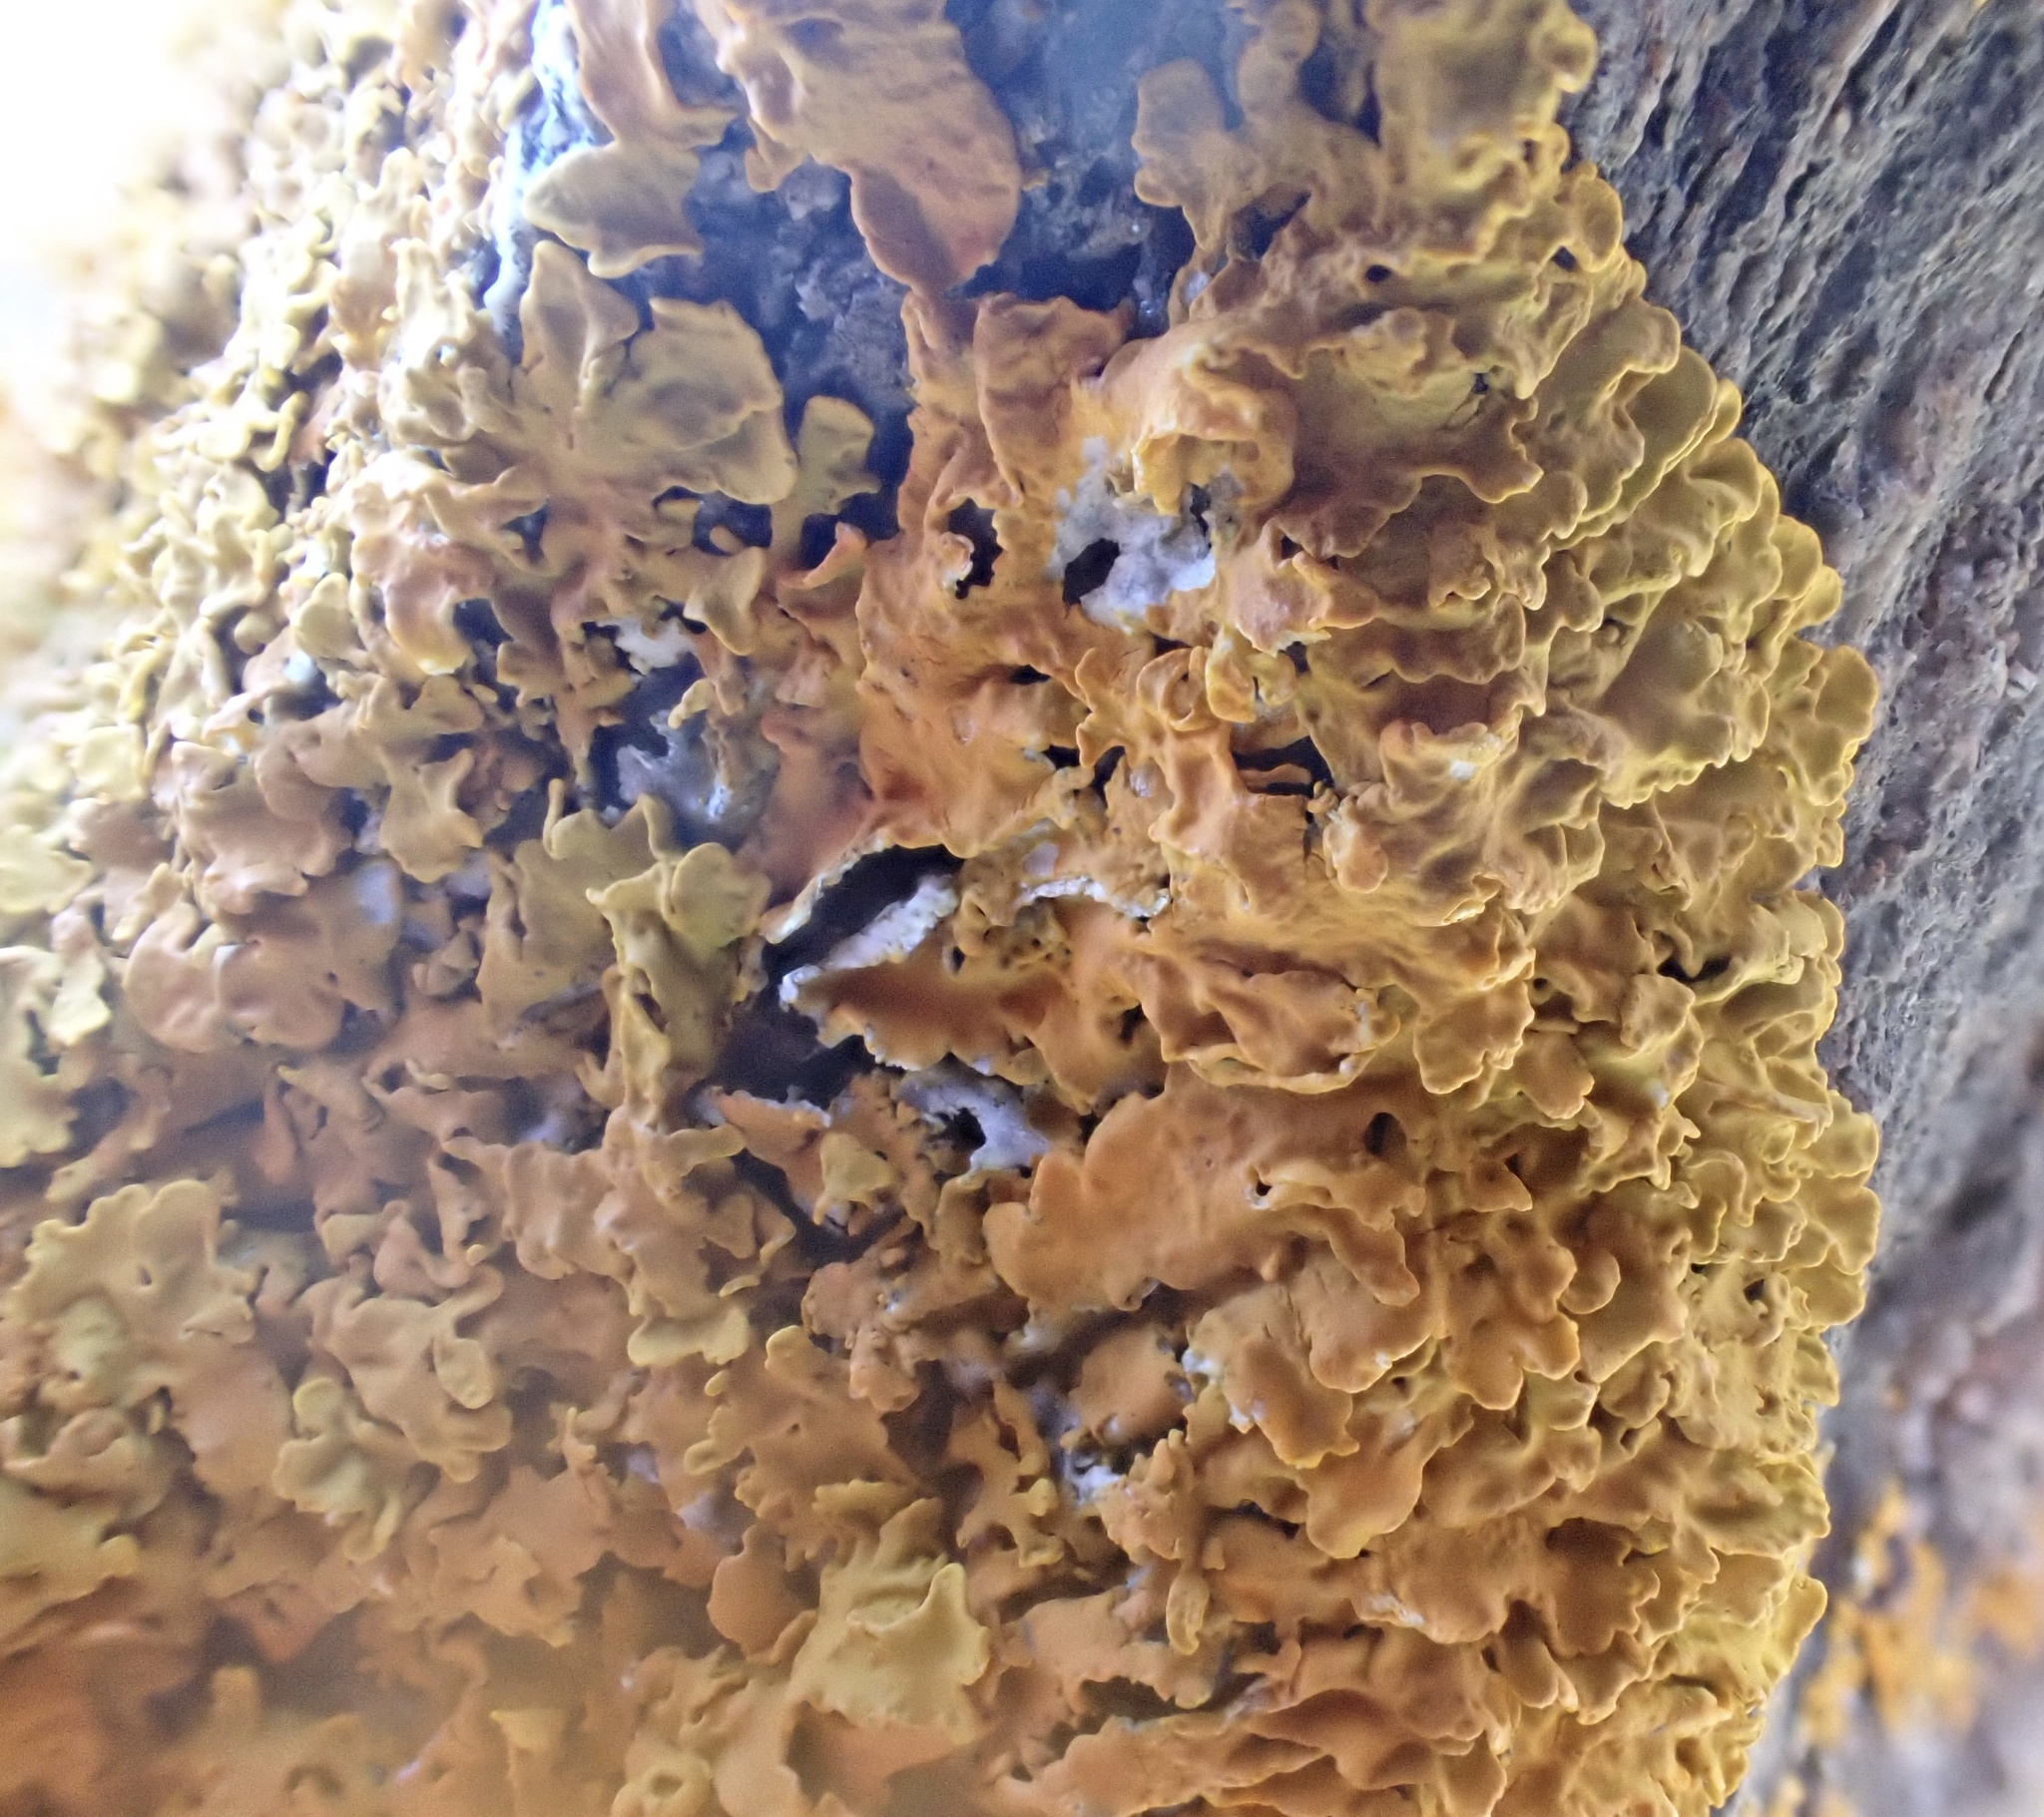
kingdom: Fungi
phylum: Ascomycota
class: Lecanoromycetes
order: Teloschistales
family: Teloschistaceae
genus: Xanthoria
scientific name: Xanthoria aureola
